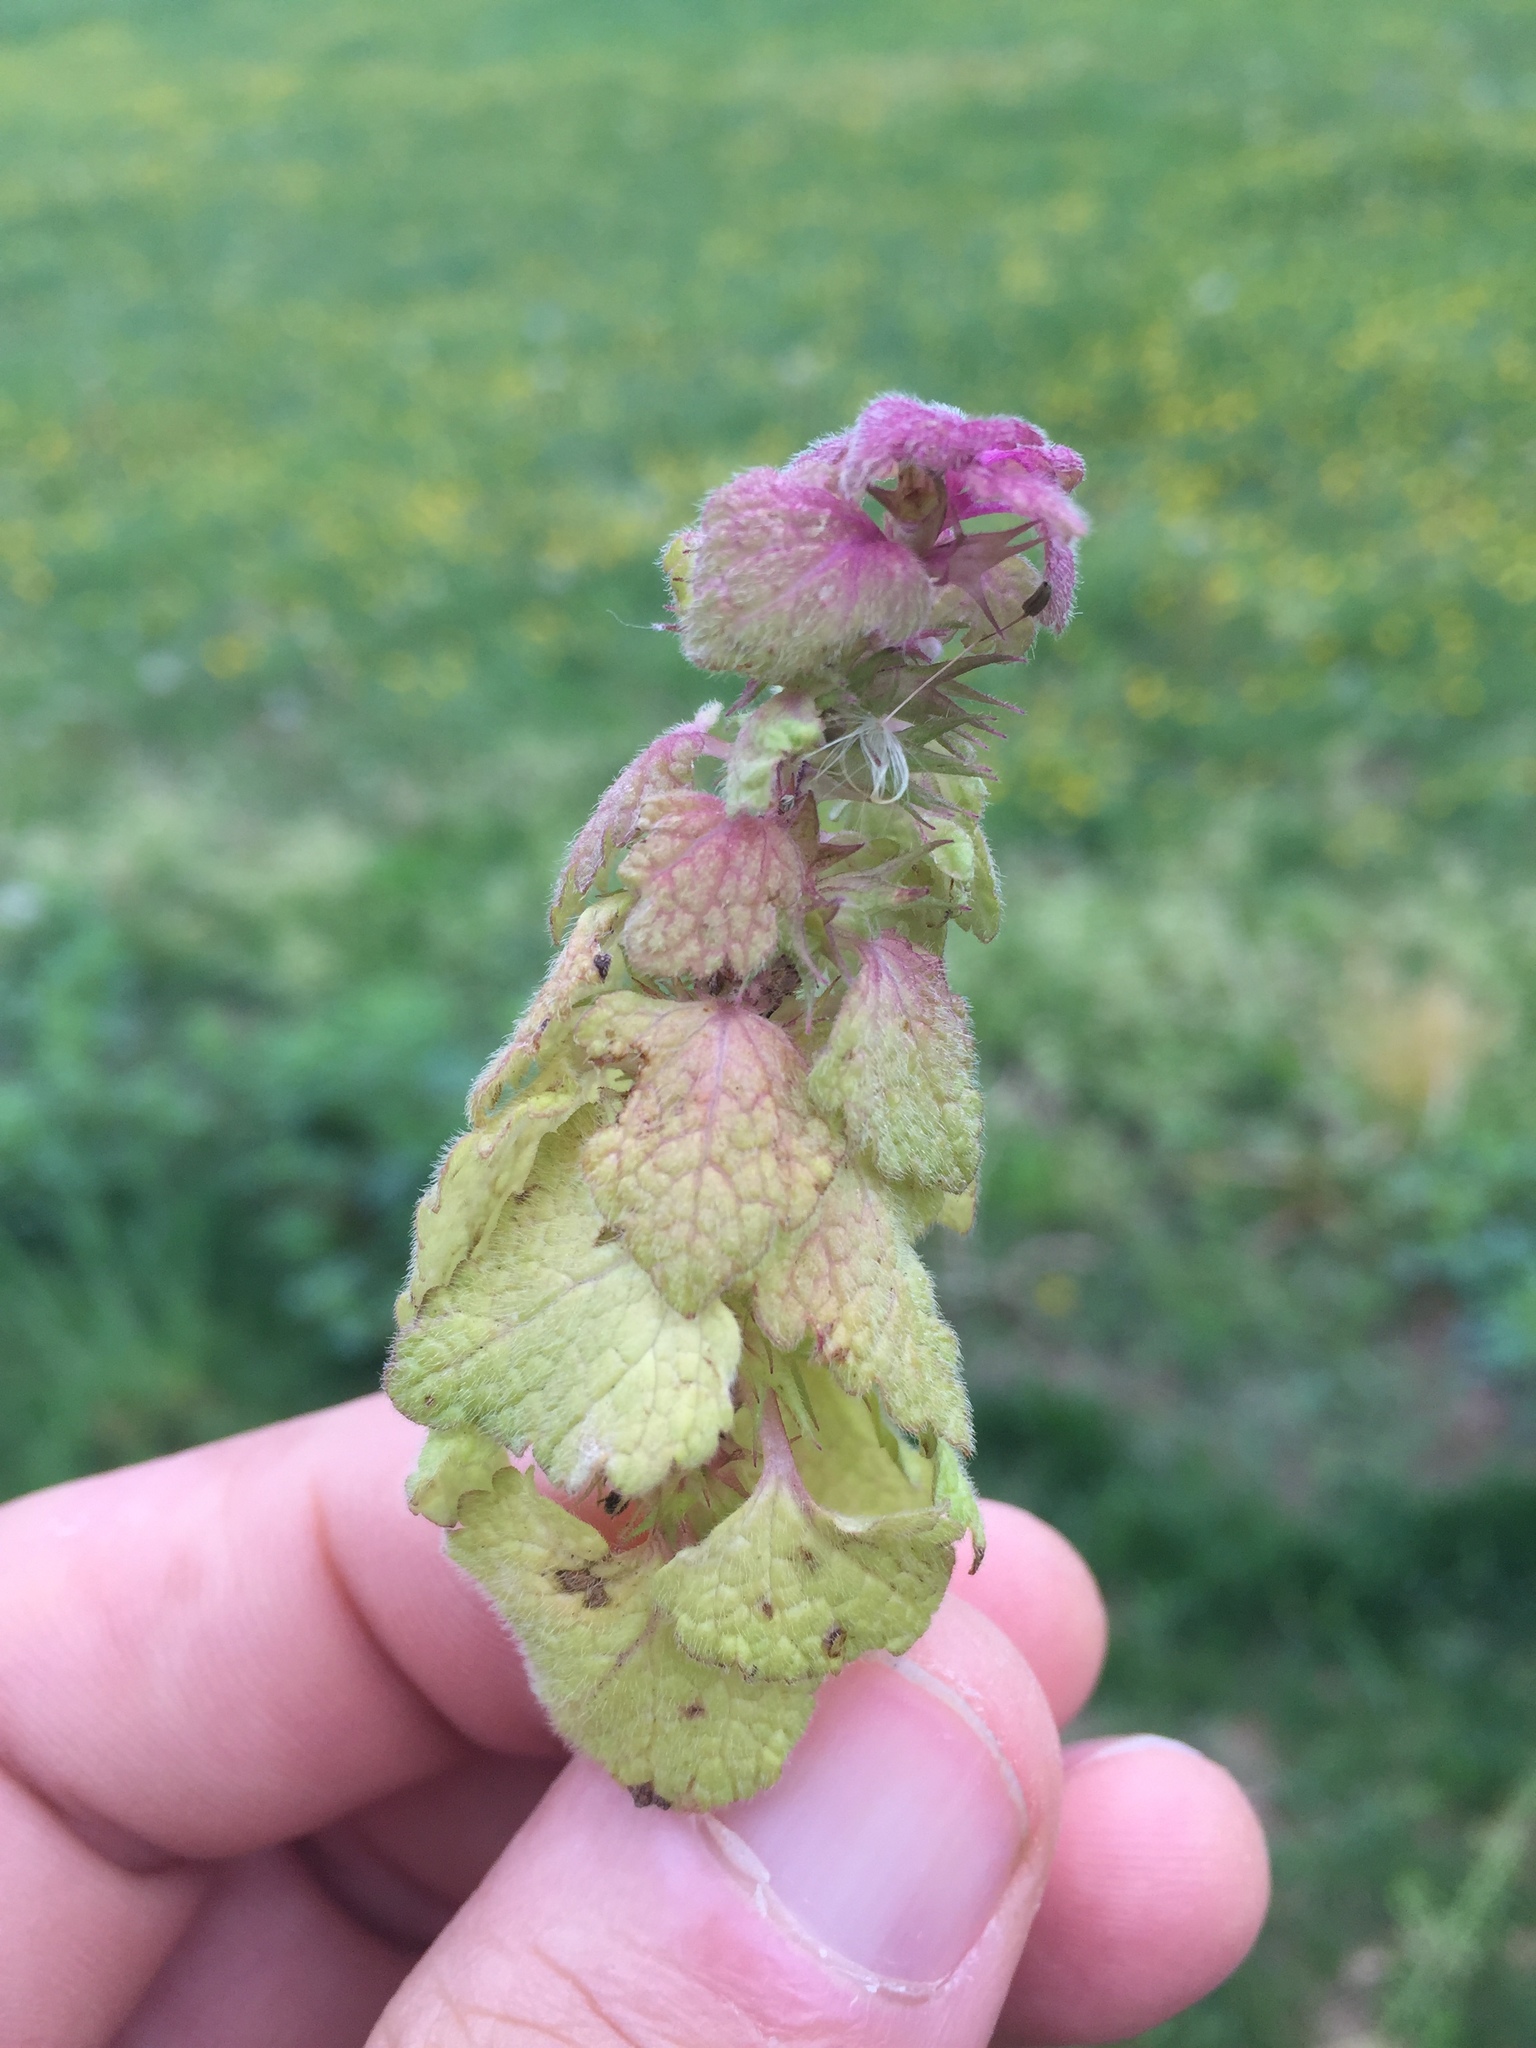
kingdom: Plantae
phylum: Tracheophyta
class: Magnoliopsida
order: Lamiales
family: Lamiaceae
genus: Lamium
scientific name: Lamium purpureum
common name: Red dead-nettle
